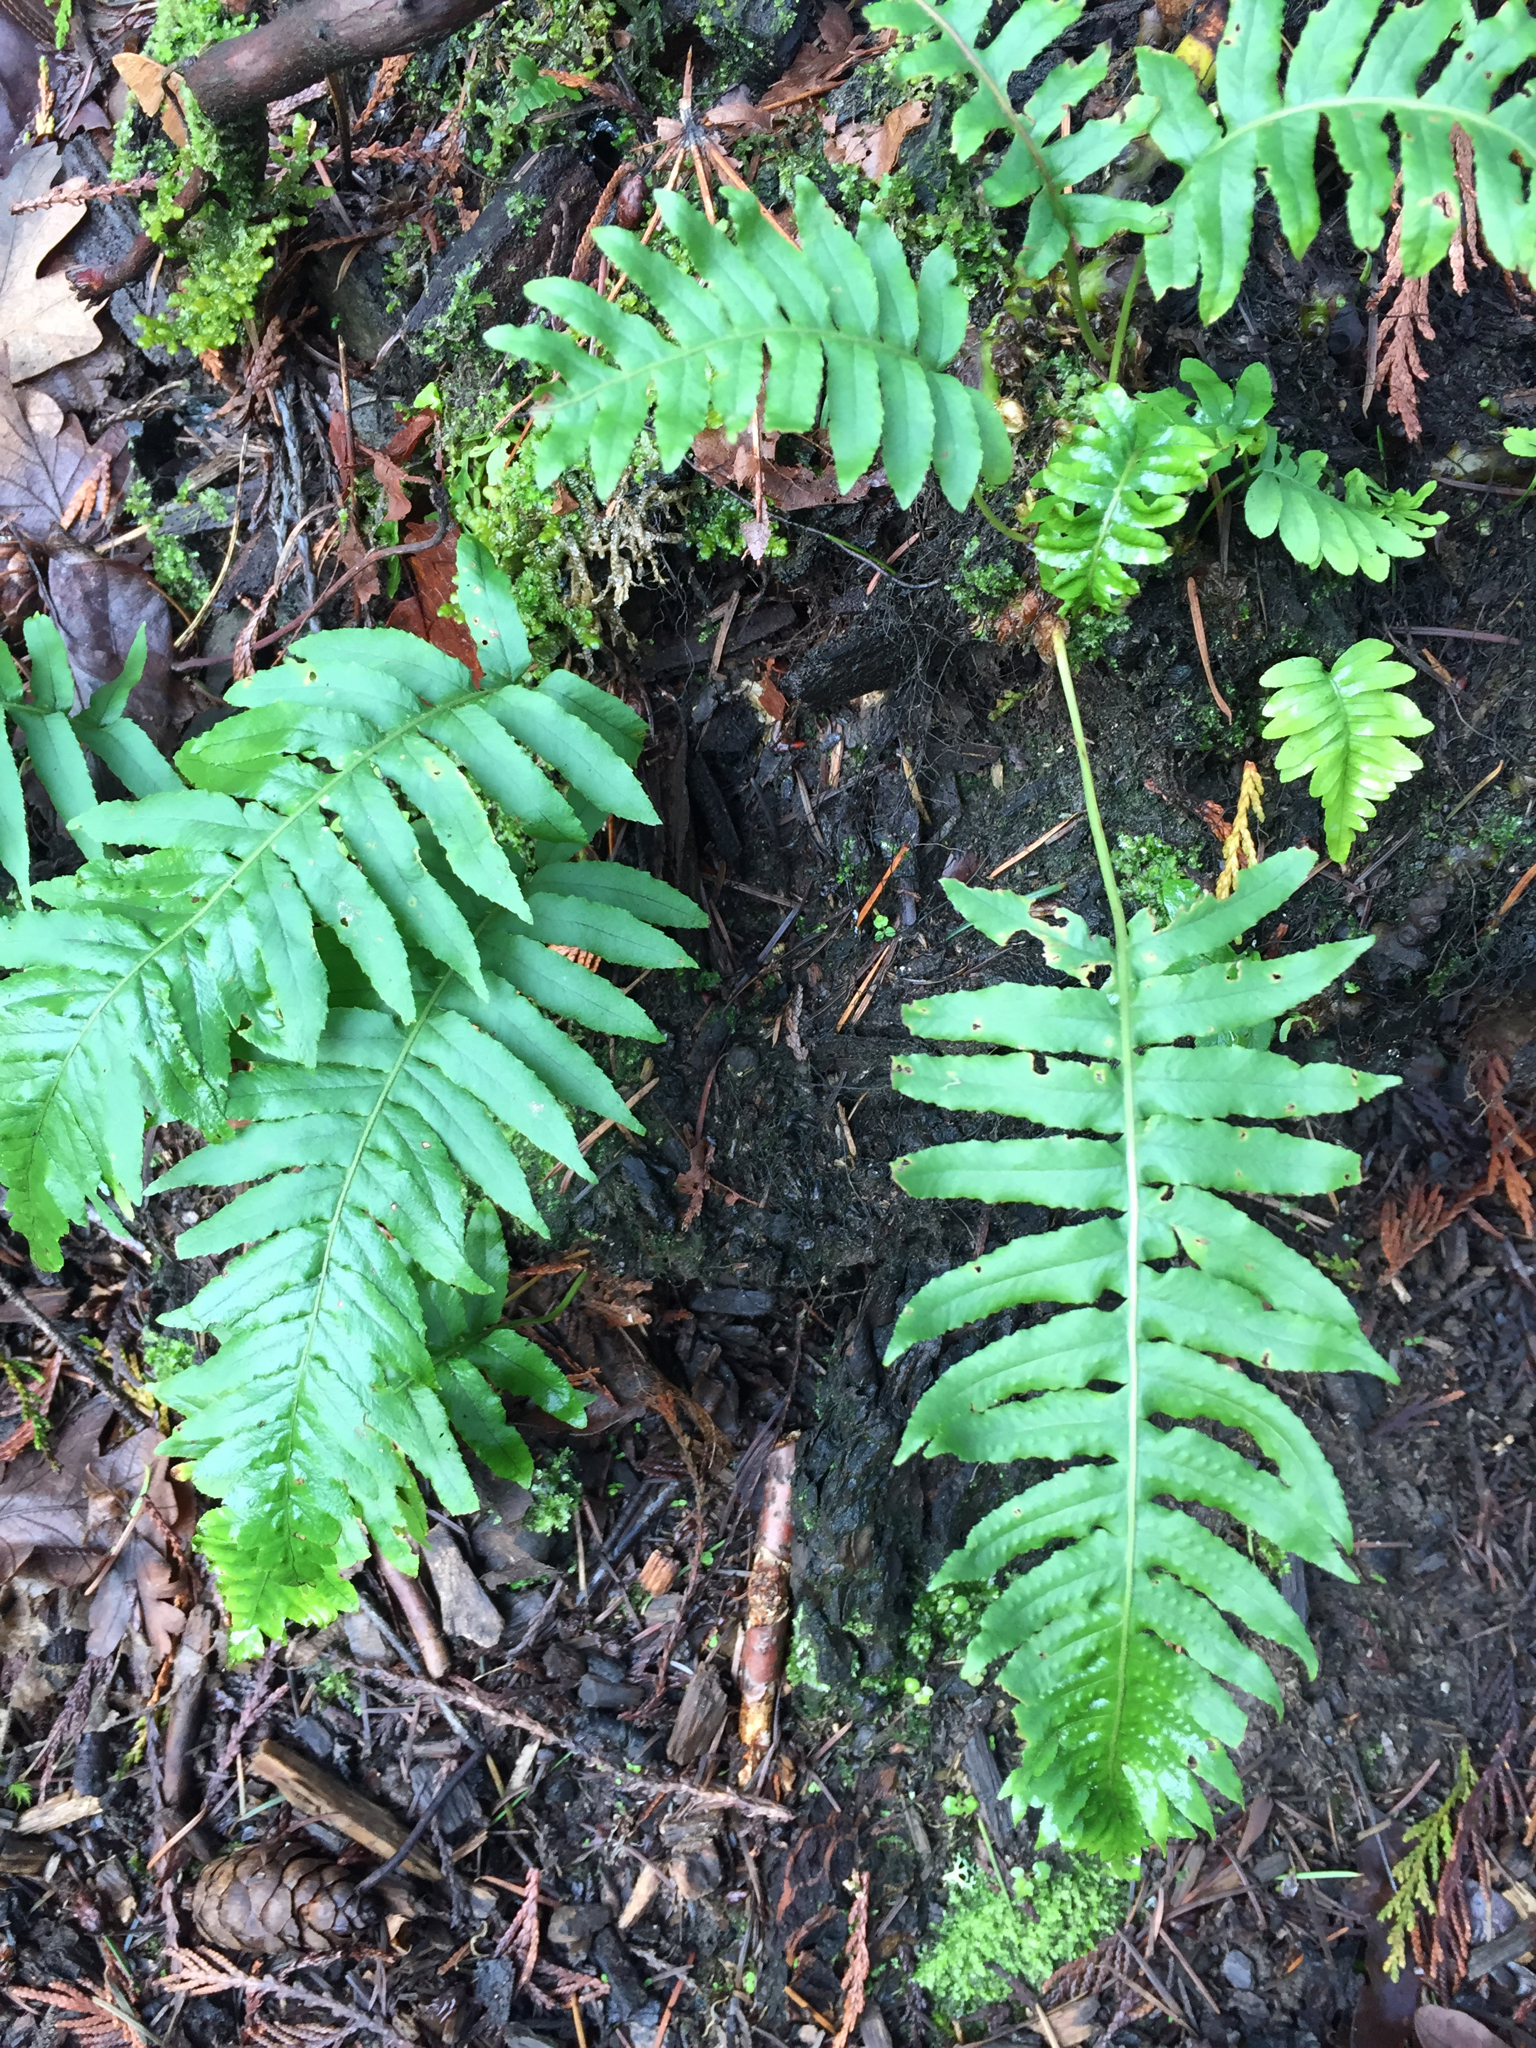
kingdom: Plantae
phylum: Tracheophyta
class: Polypodiopsida
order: Polypodiales
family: Polypodiaceae
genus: Polypodium
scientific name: Polypodium glycyrrhiza
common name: Licorice fern
